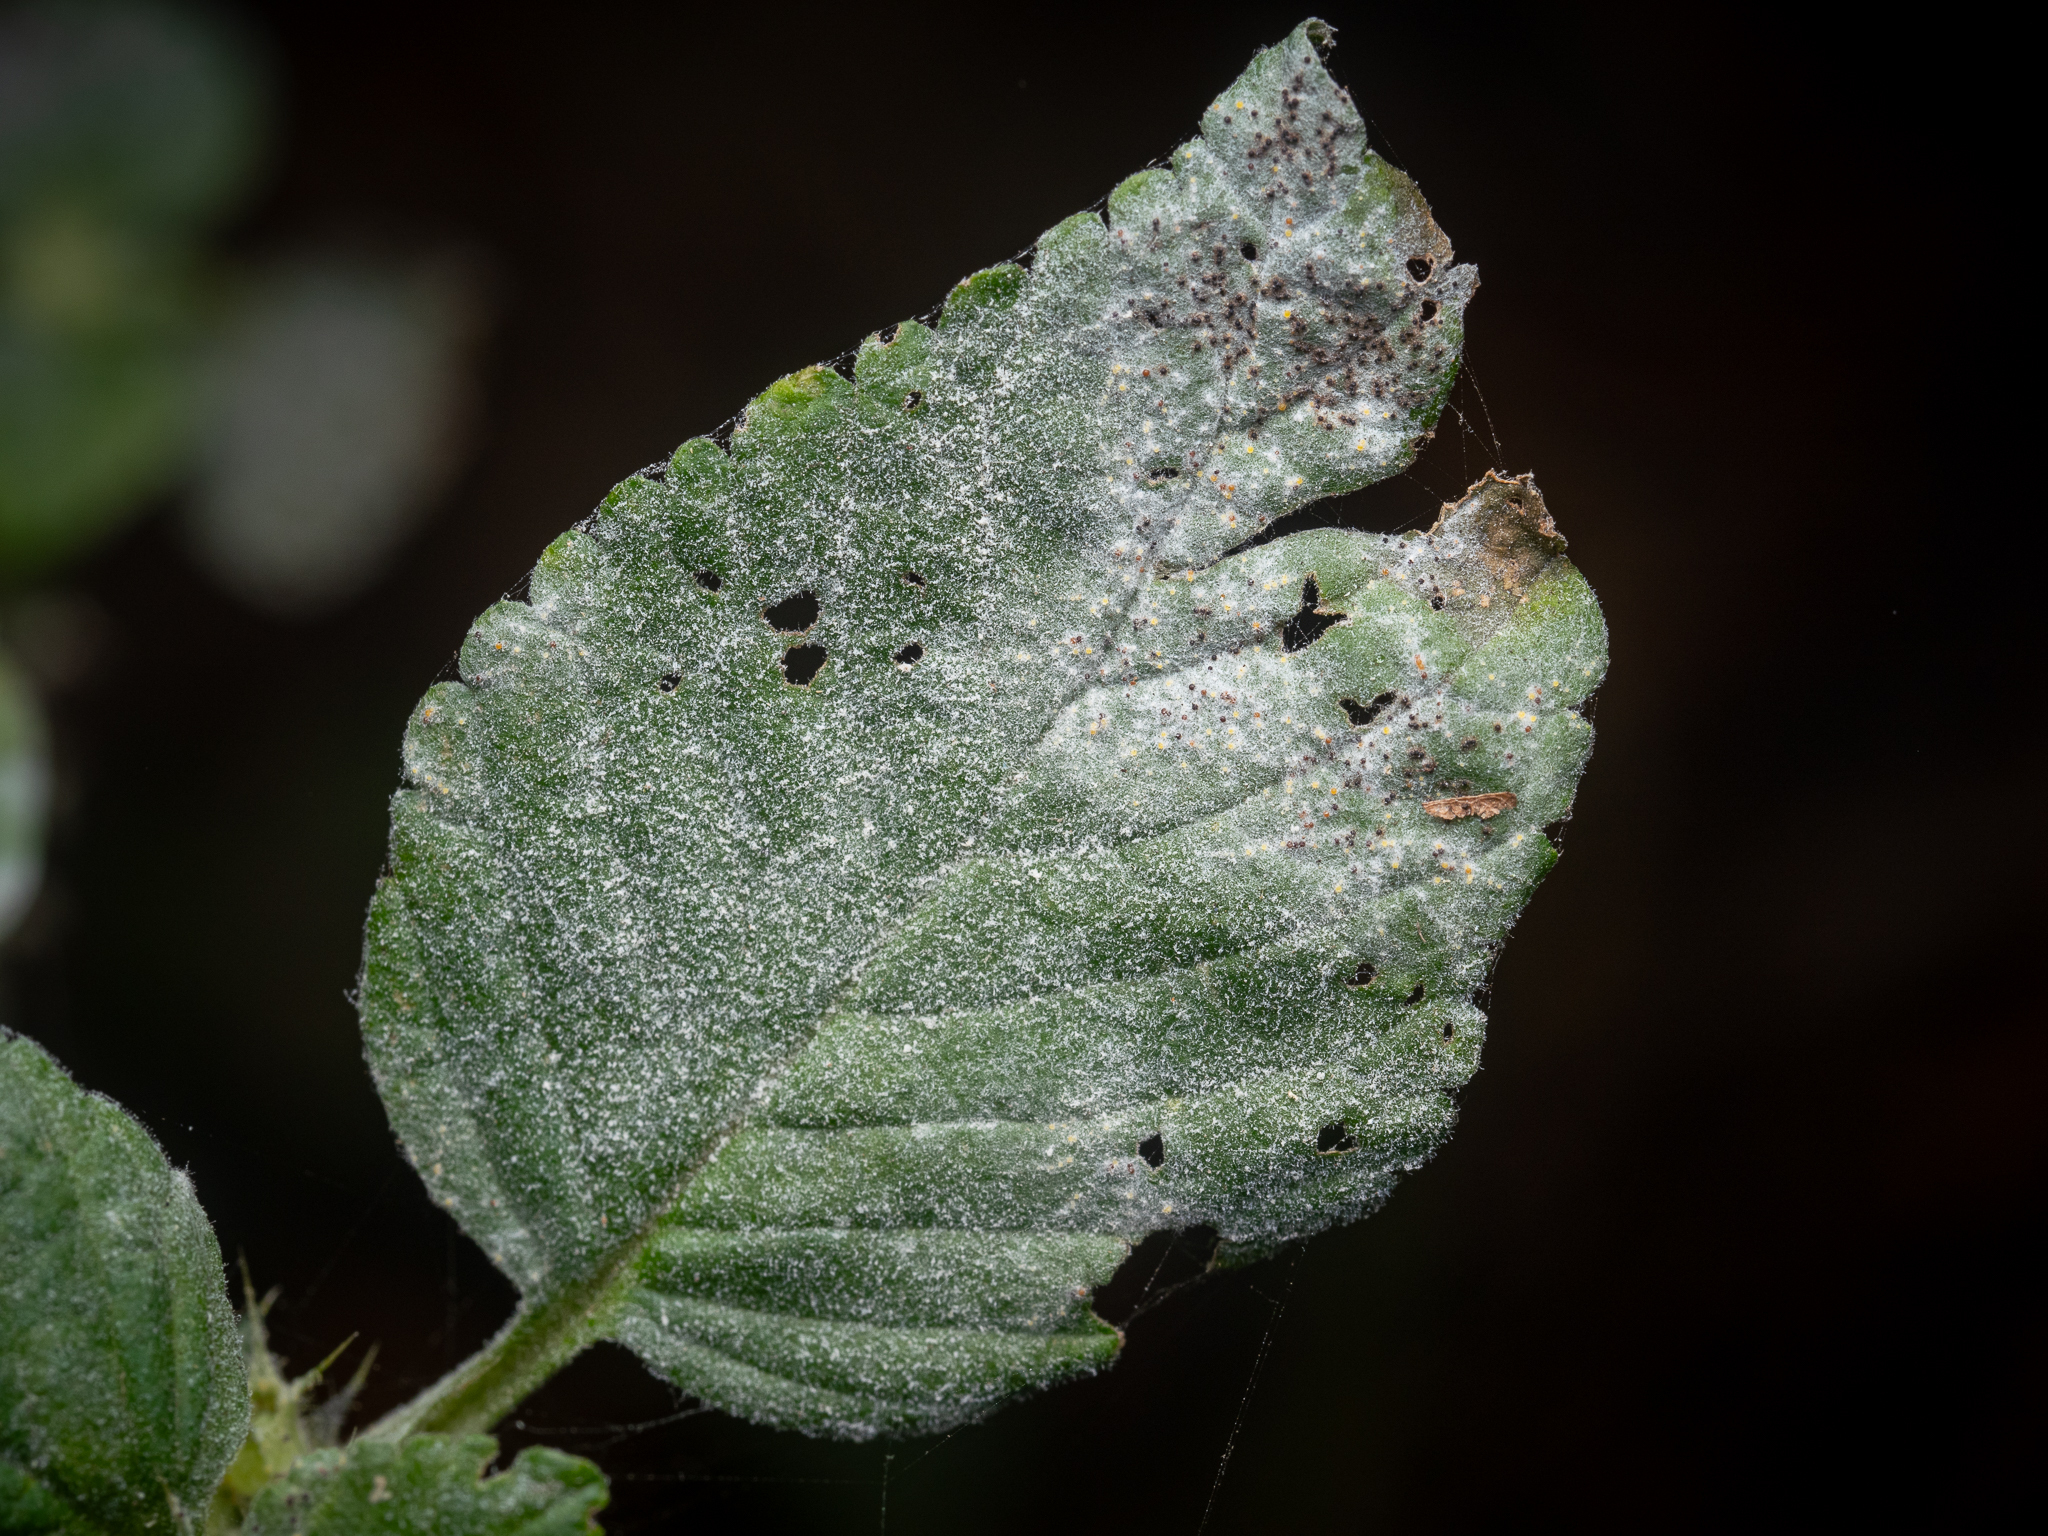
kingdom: Fungi
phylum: Ascomycota
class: Leotiomycetes
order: Helotiales
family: Erysiphaceae
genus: Neoerysiphe
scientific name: Neoerysiphe galeopsidis
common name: Mint mildew
